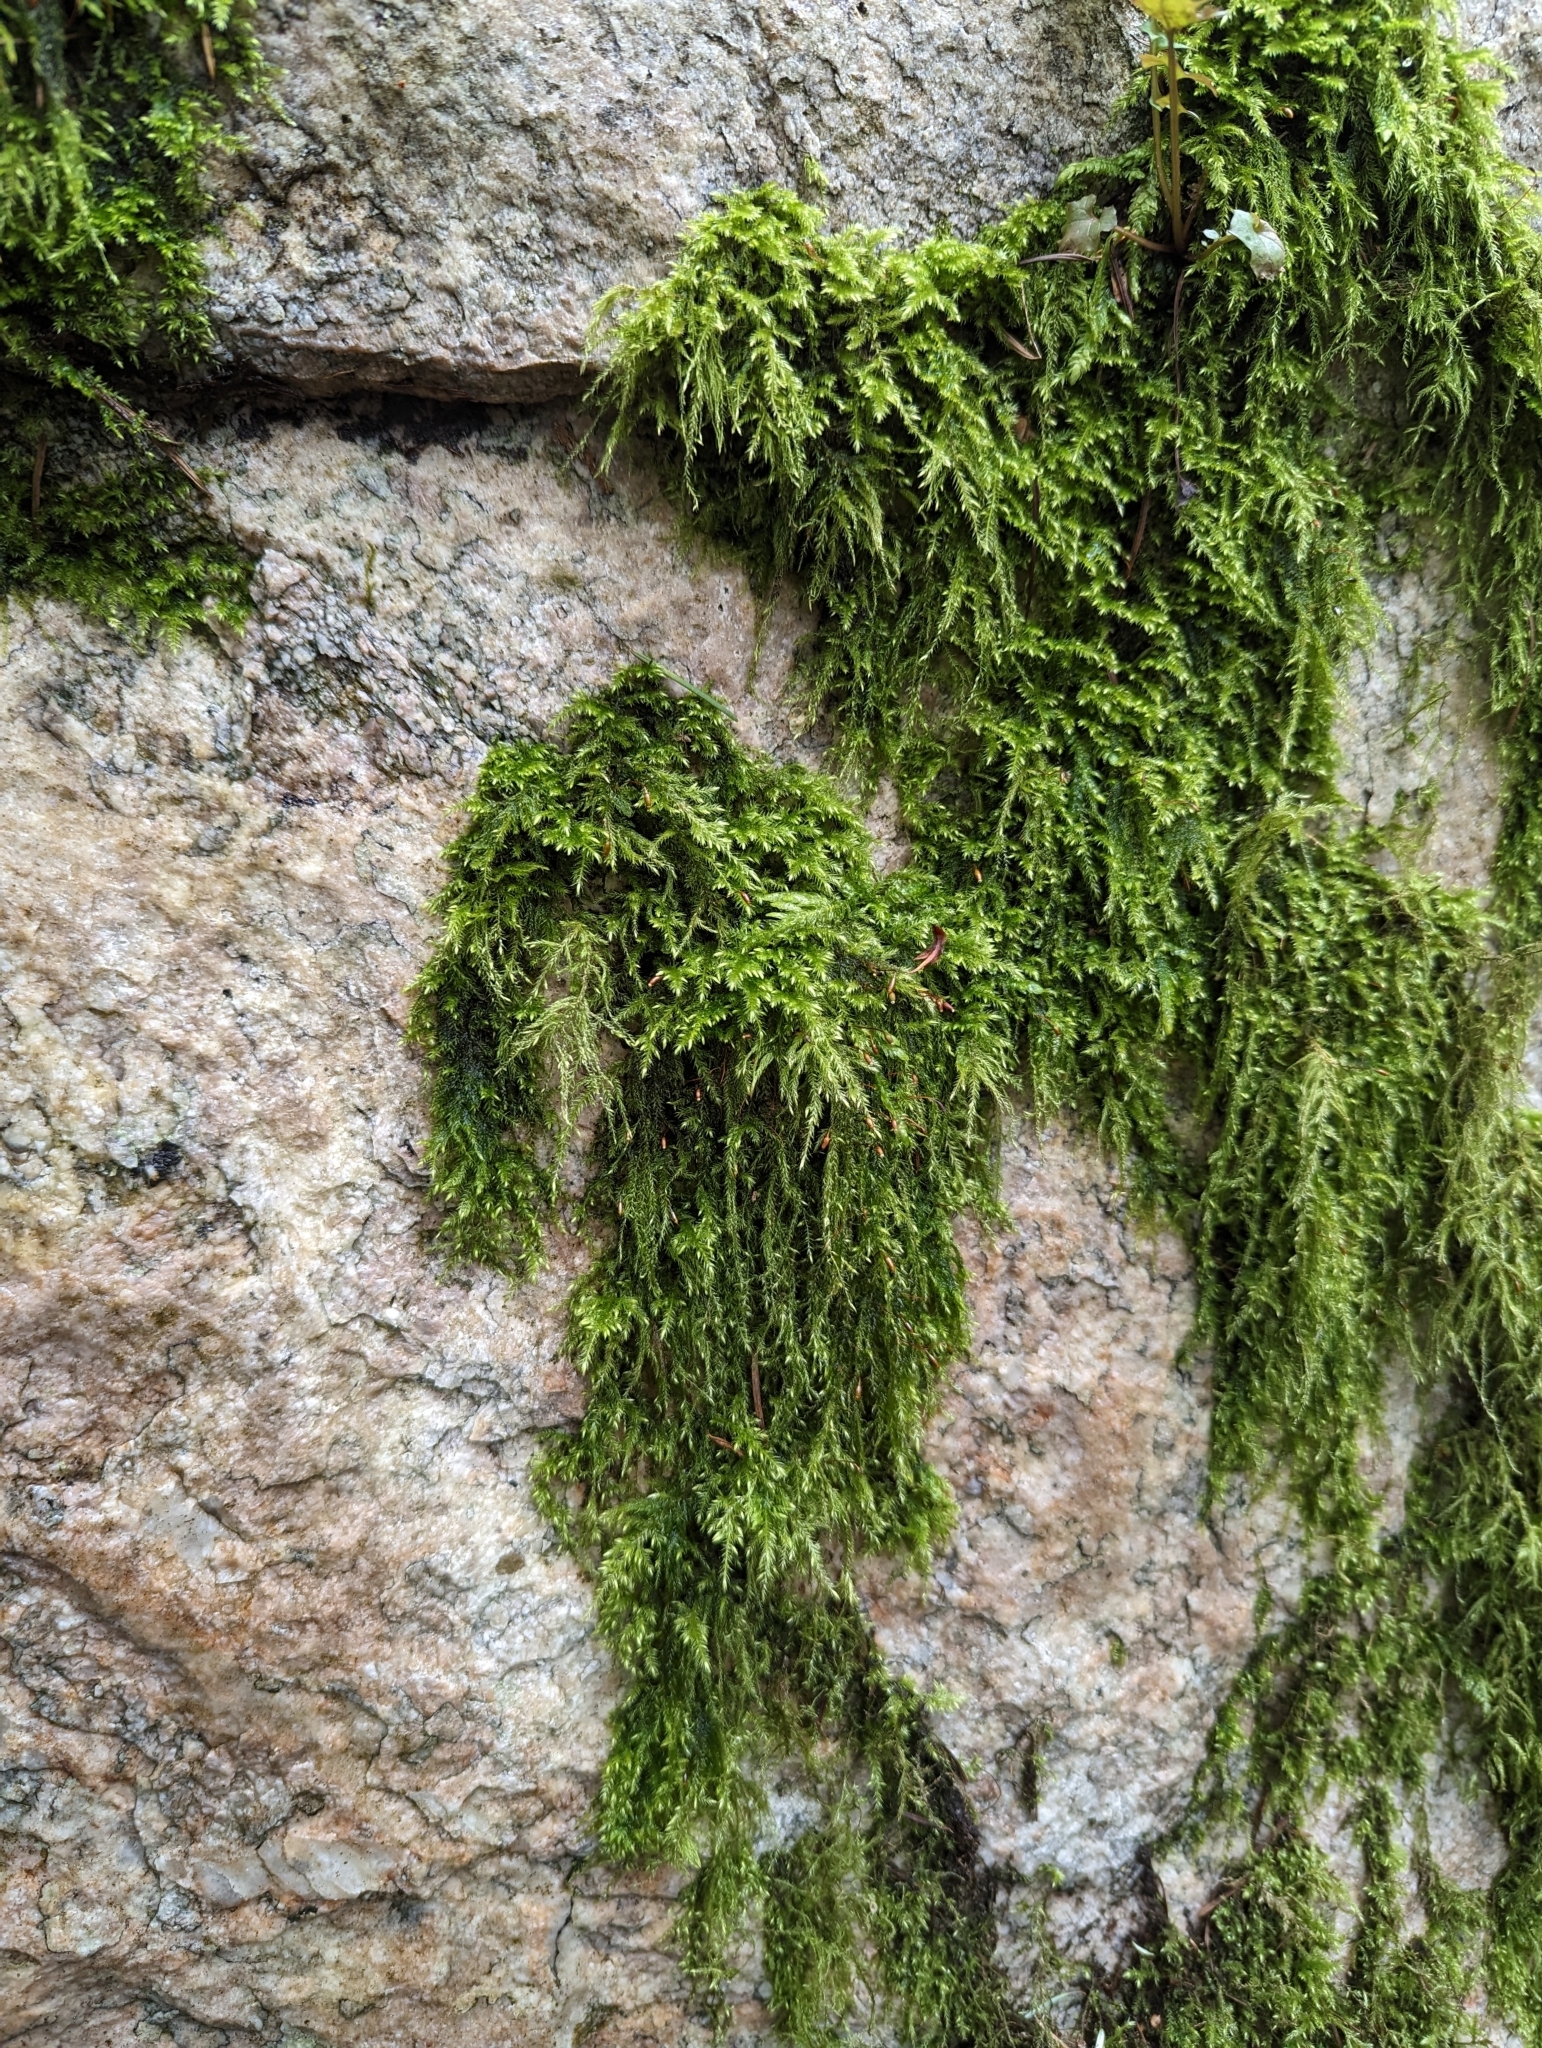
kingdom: Plantae
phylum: Bryophyta
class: Bryopsida
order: Hypnales
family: Lembophyllaceae
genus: Pseudisothecium
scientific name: Pseudisothecium stoloniferum
